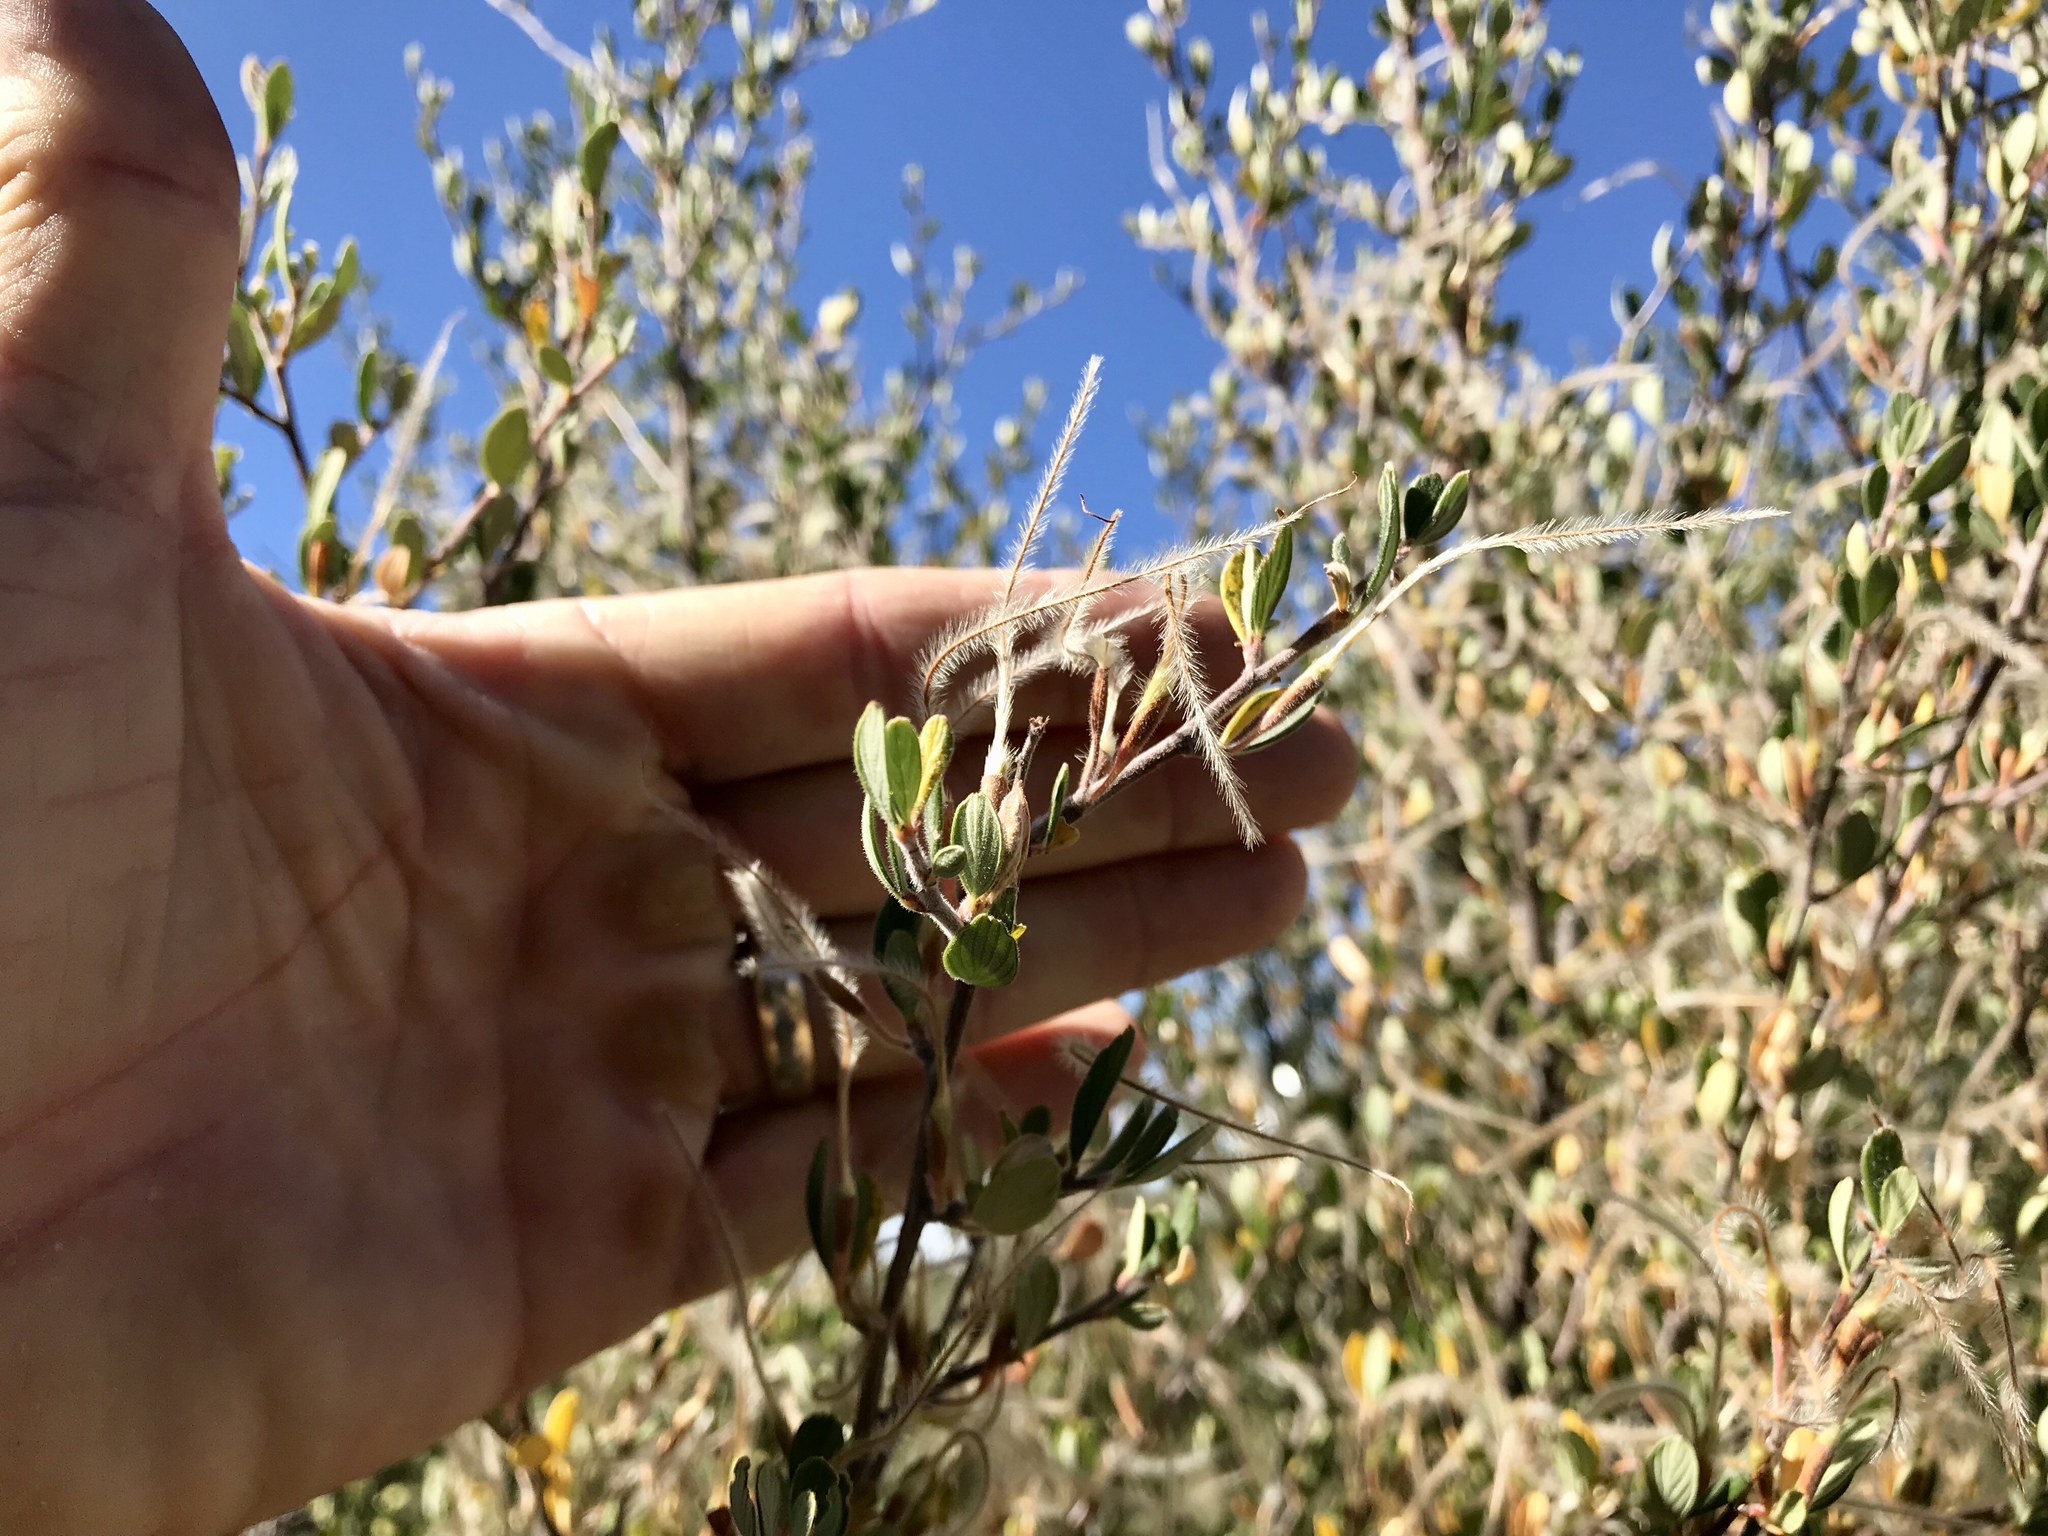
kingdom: Plantae
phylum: Tracheophyta
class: Magnoliopsida
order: Rosales
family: Rosaceae
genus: Cercocarpus
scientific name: Cercocarpus breviflorus
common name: Wright's mountain-mahogany
